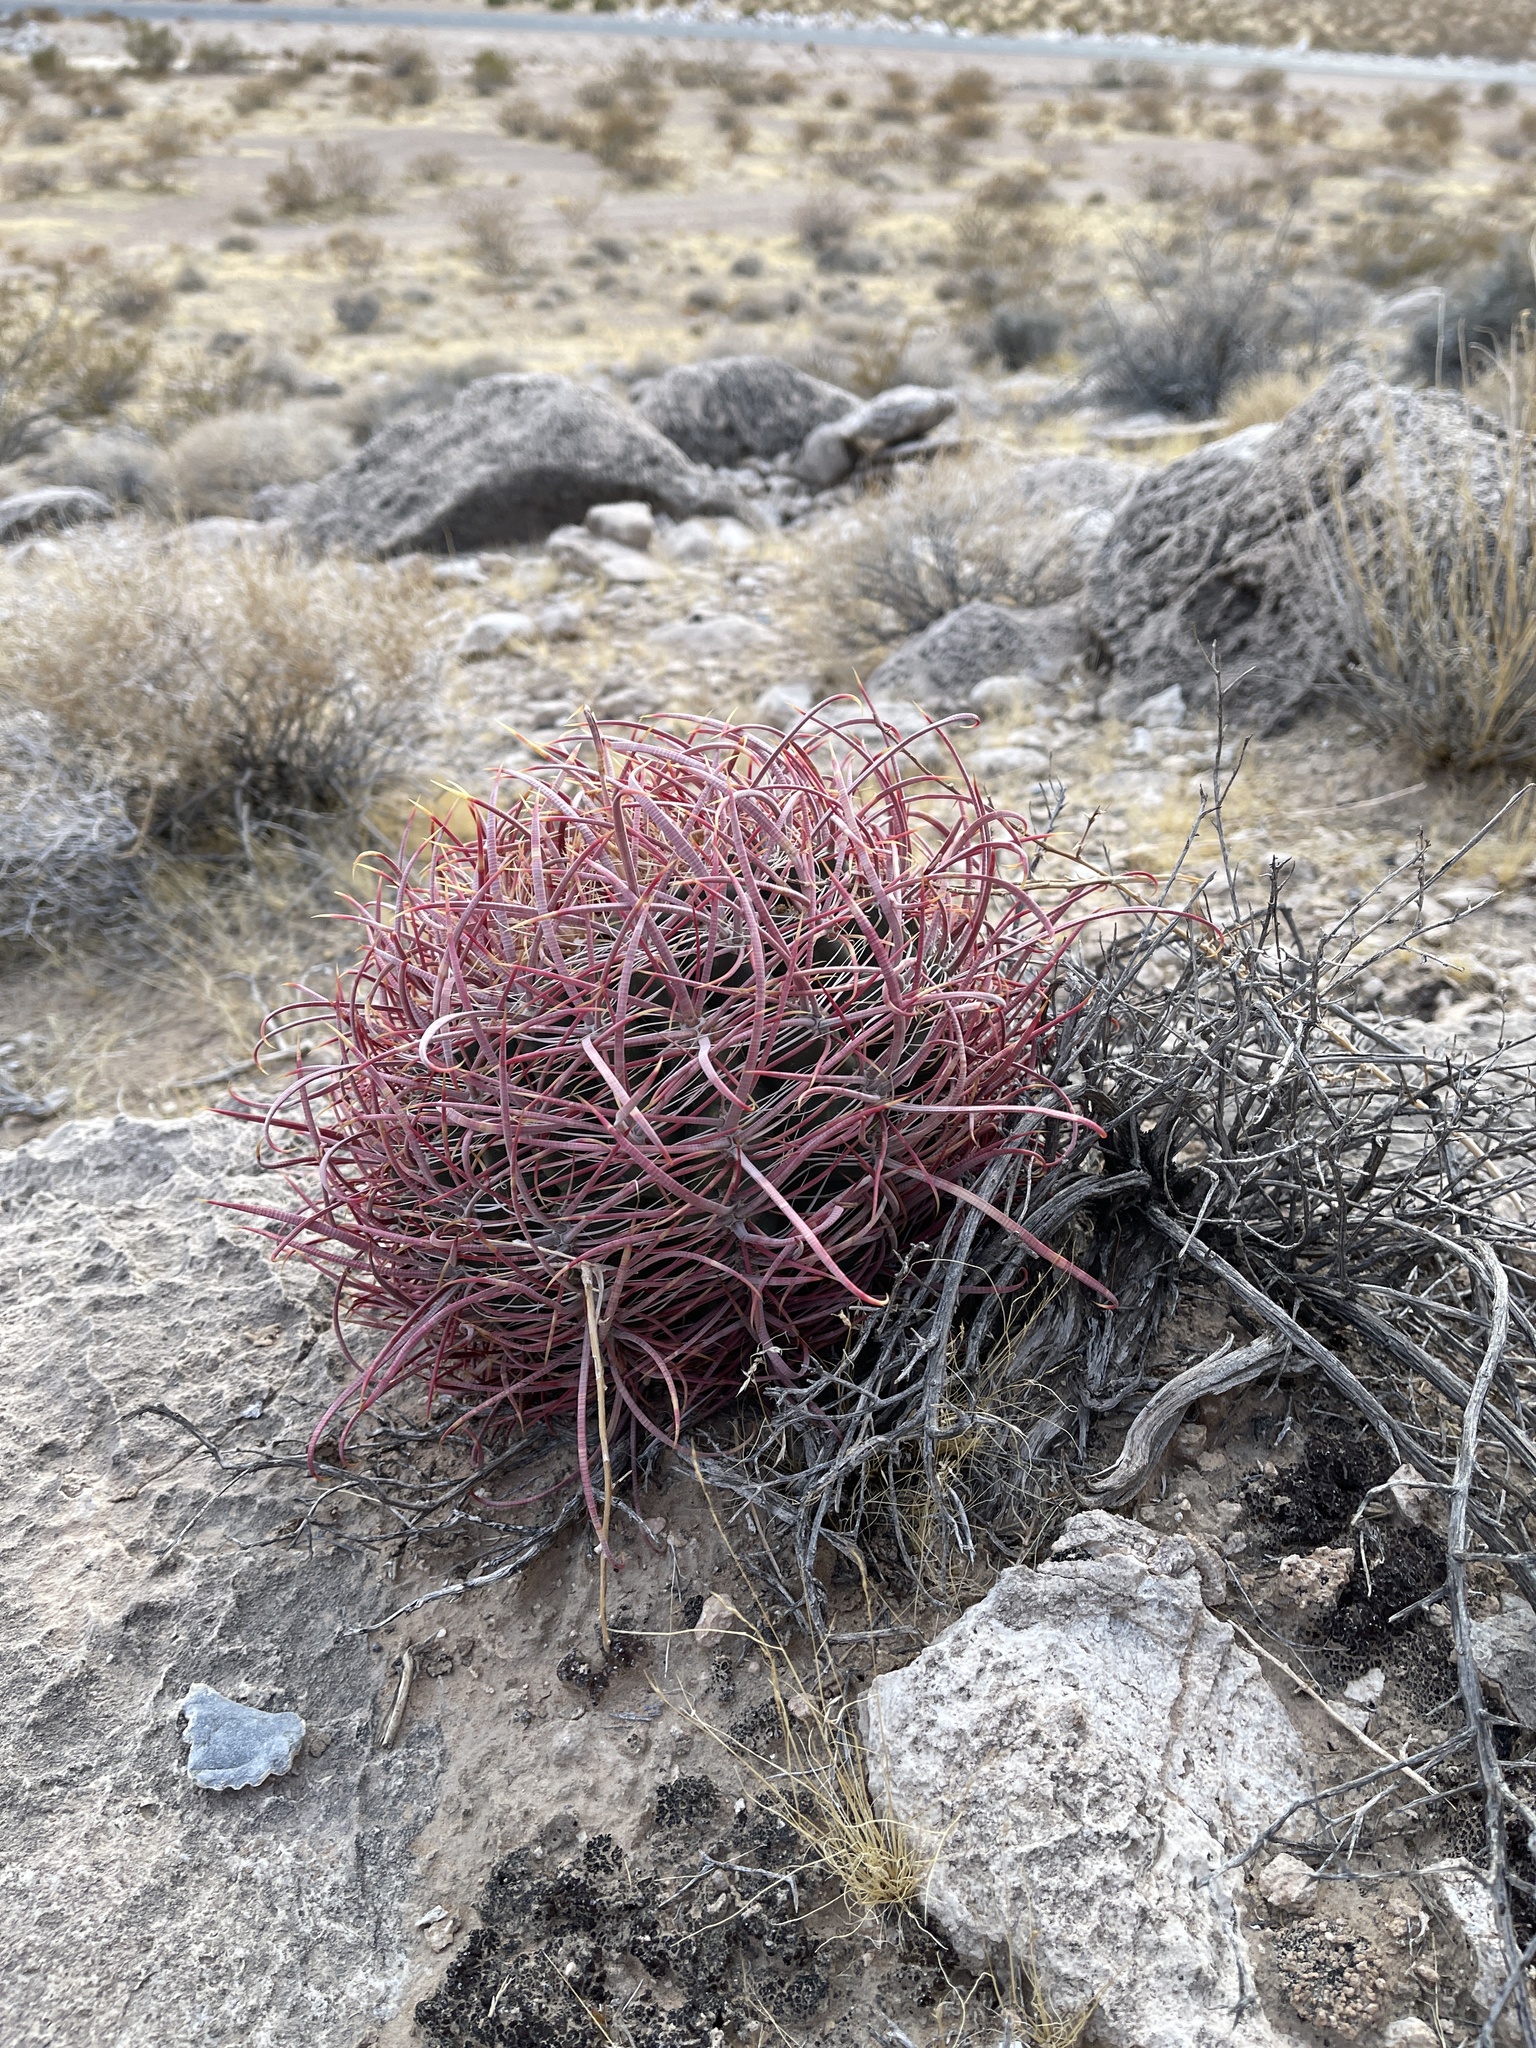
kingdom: Plantae
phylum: Tracheophyta
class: Magnoliopsida
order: Caryophyllales
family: Cactaceae
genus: Ferocactus
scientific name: Ferocactus cylindraceus
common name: California barrel cactus
